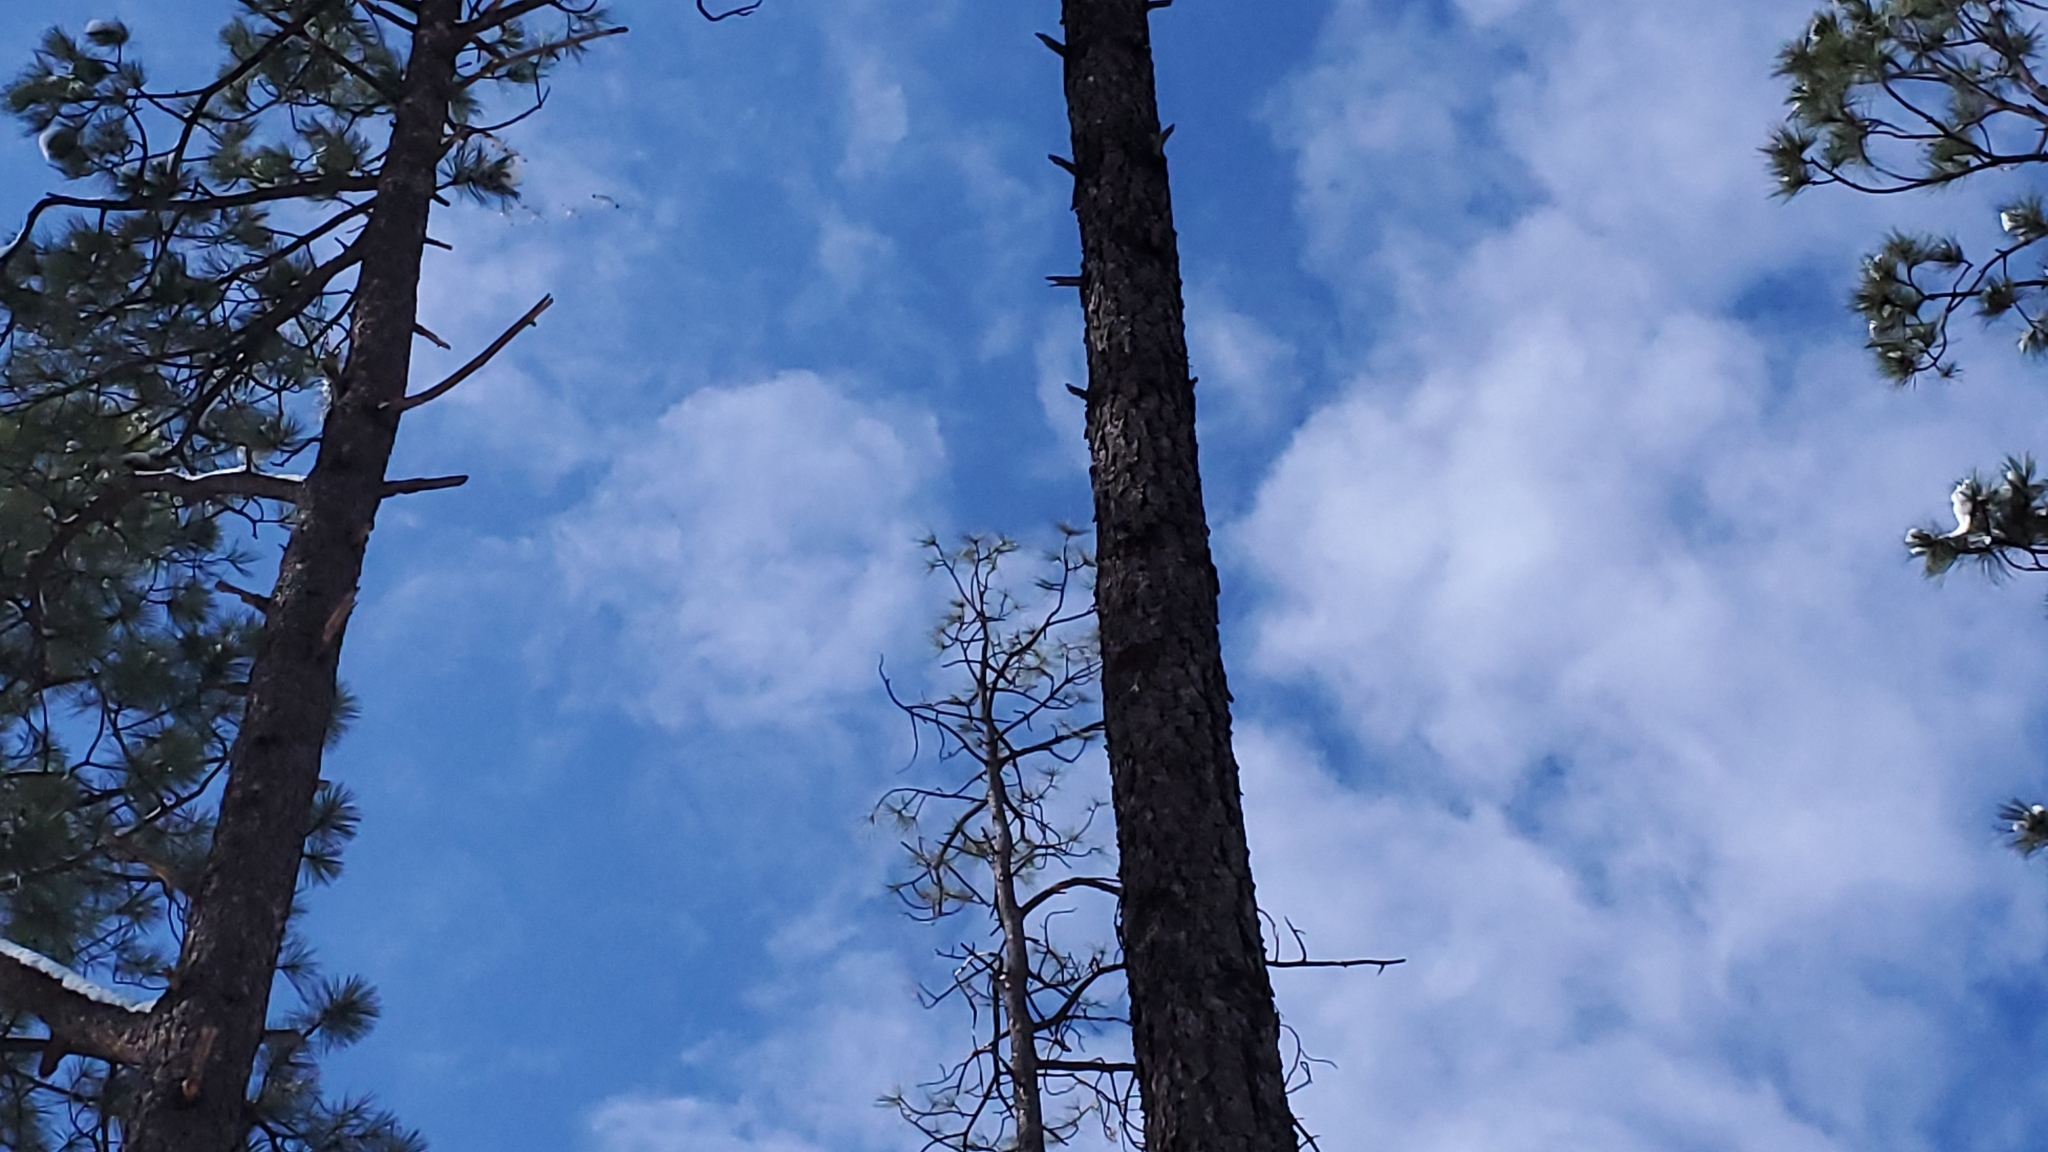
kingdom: Animalia
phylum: Chordata
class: Aves
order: Gruiformes
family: Gruidae
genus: Grus
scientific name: Grus canadensis
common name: Sandhill crane
